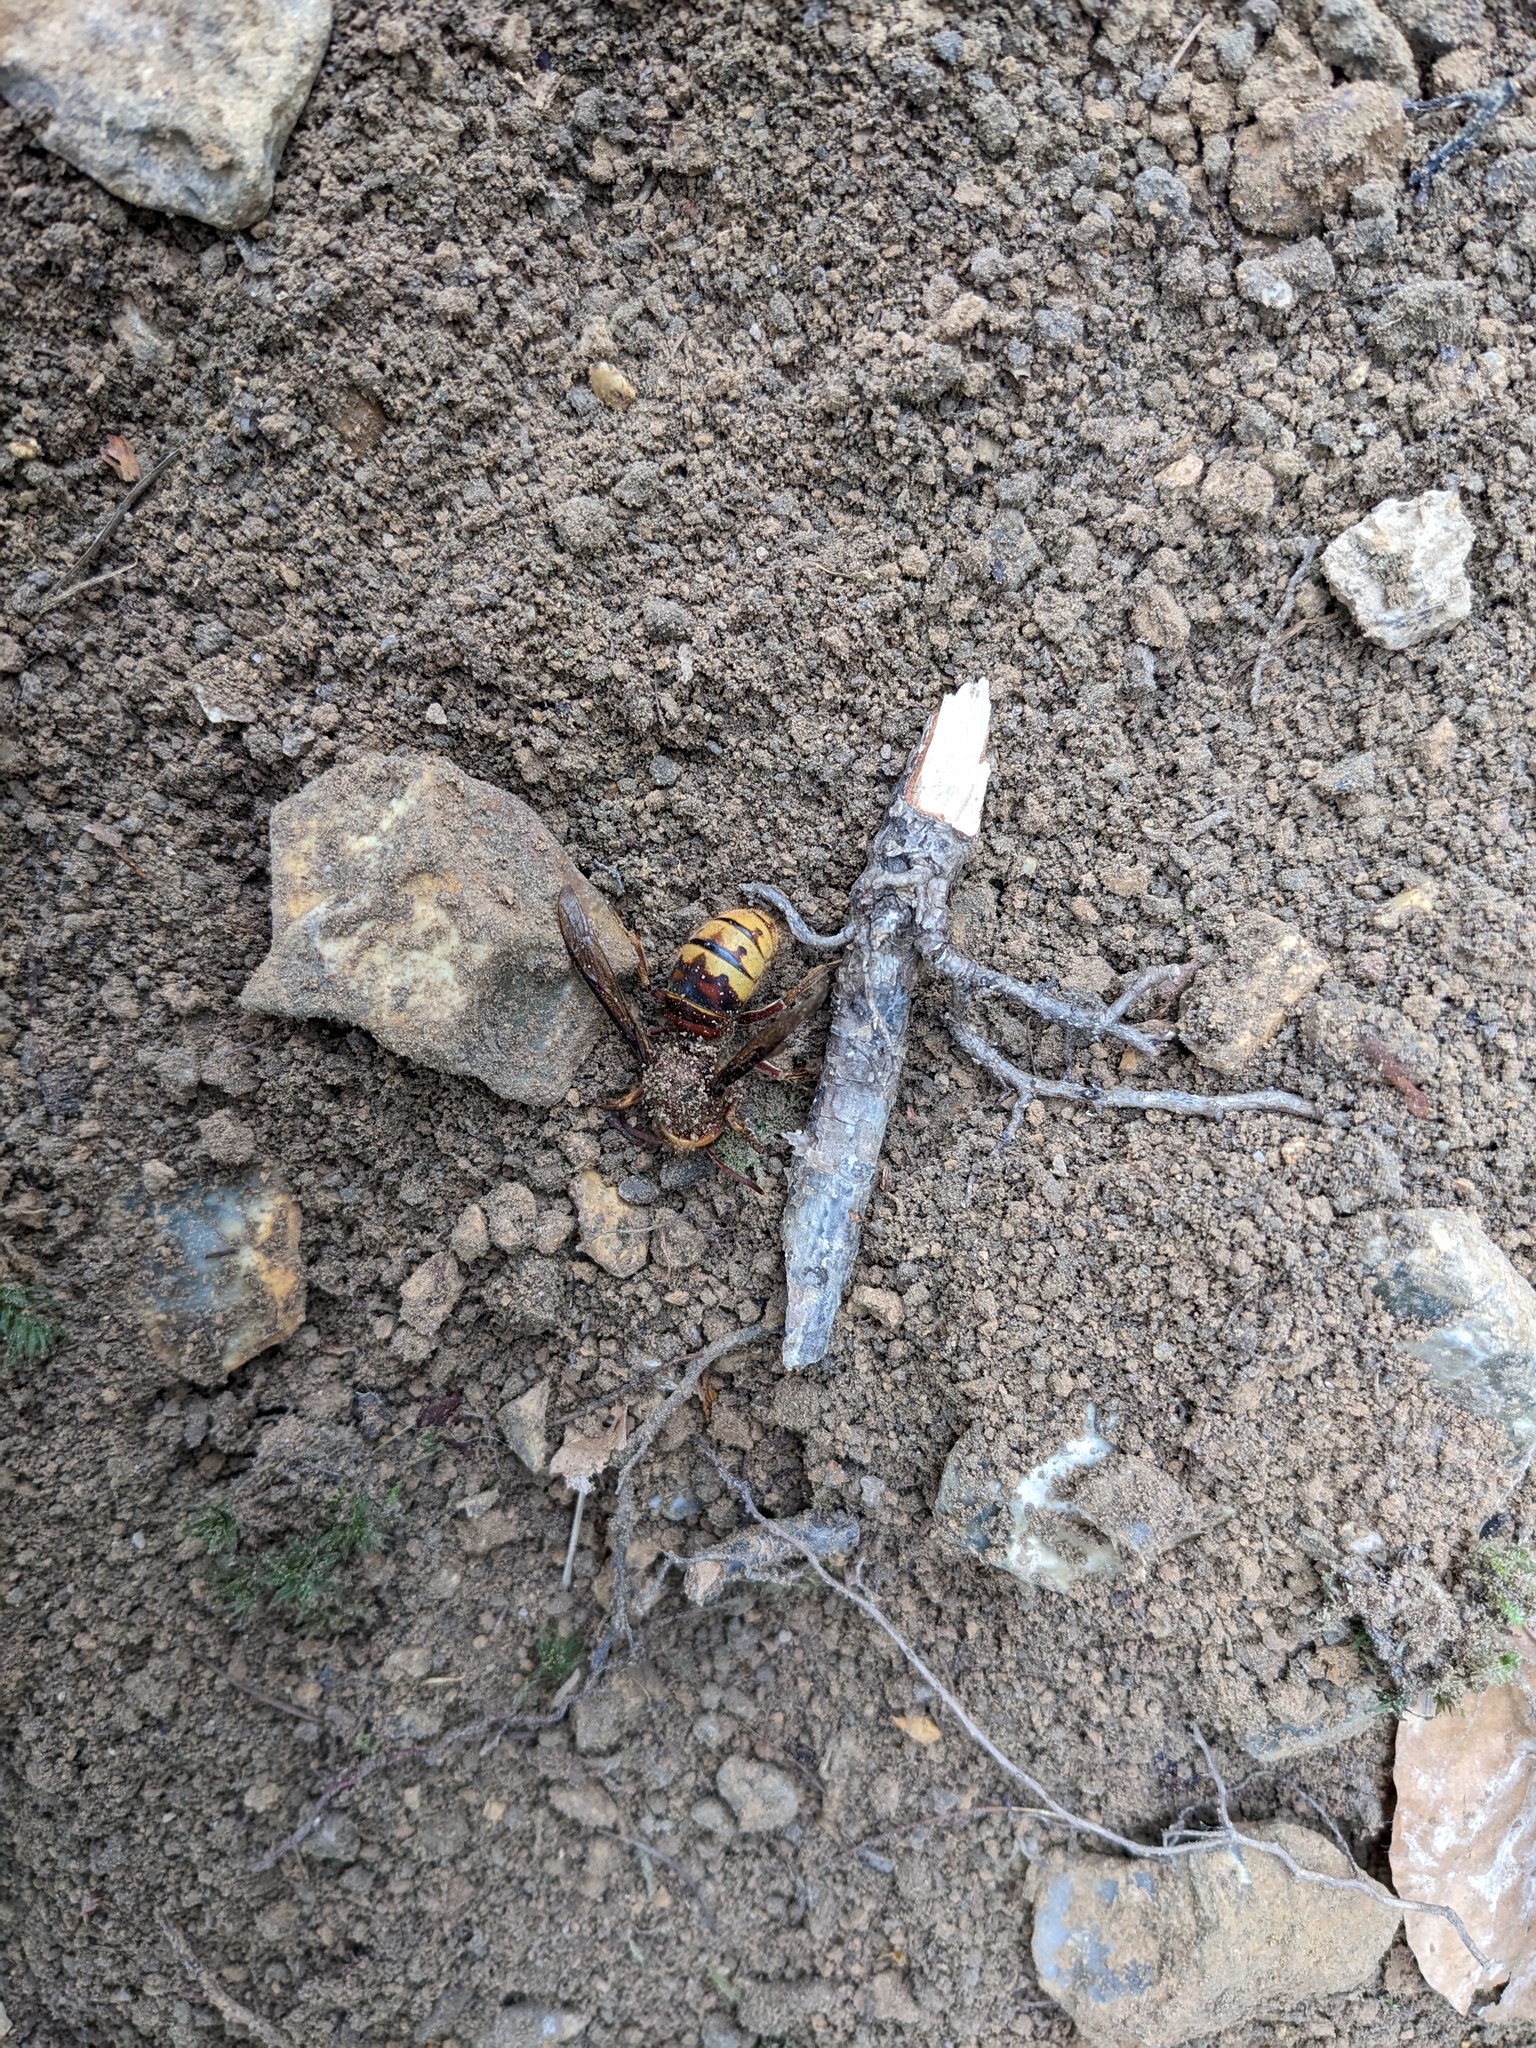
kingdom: Animalia
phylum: Arthropoda
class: Insecta
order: Hymenoptera
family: Vespidae
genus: Vespa
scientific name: Vespa crabro
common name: Hornet
